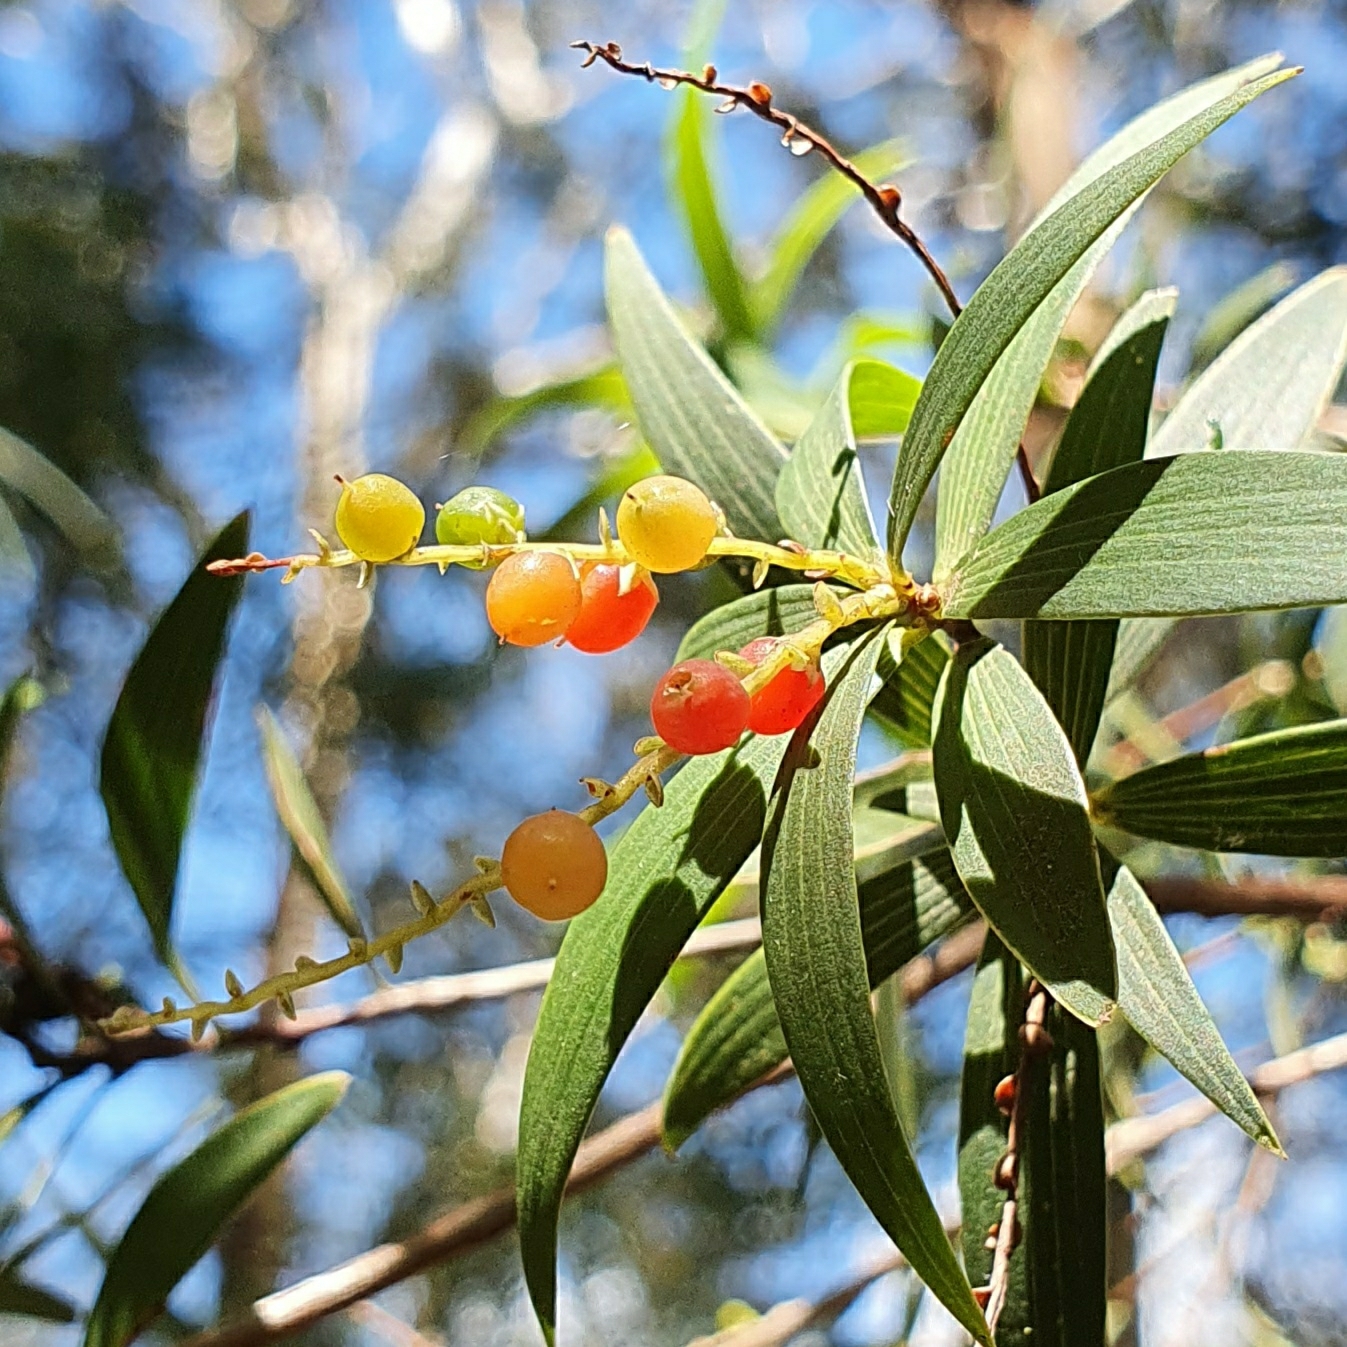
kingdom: Plantae
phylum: Tracheophyta
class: Magnoliopsida
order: Ericales
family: Ericaceae
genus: Leucopogon
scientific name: Leucopogon lanceolatus
